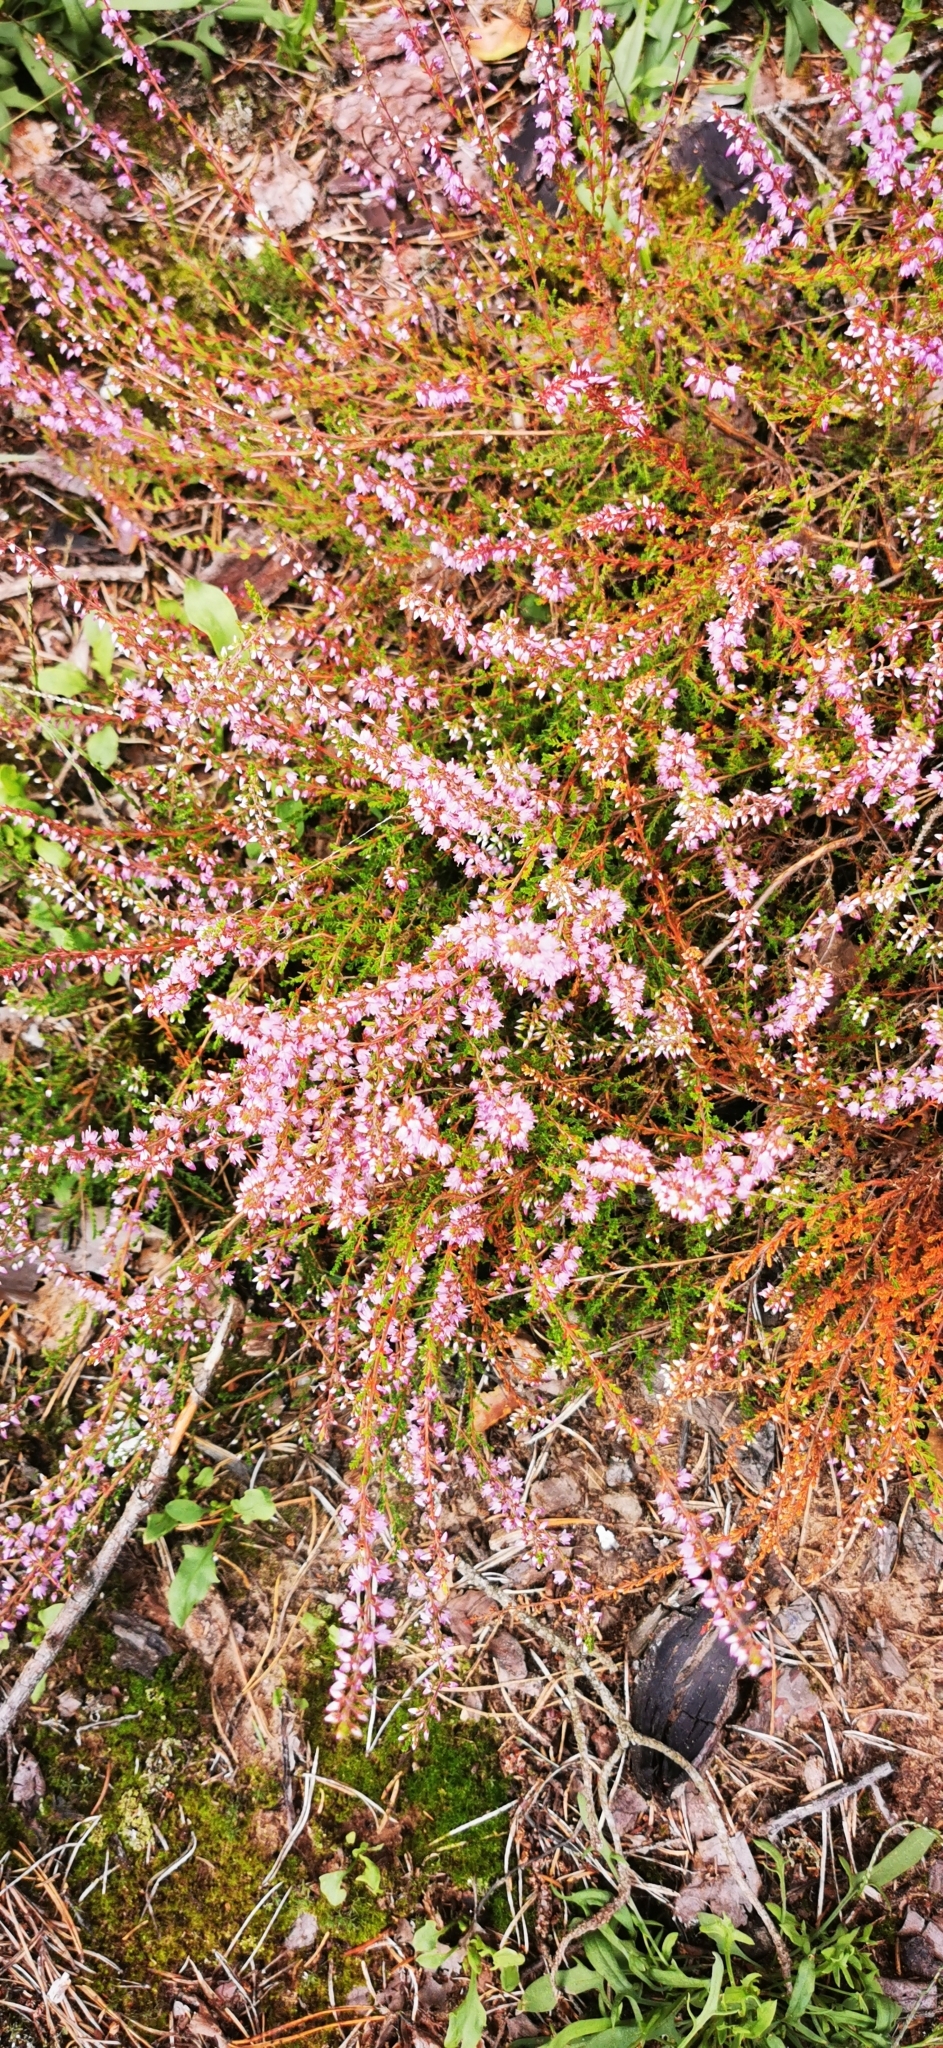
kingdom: Plantae
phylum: Tracheophyta
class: Magnoliopsida
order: Ericales
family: Ericaceae
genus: Calluna
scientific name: Calluna vulgaris
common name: Heather
